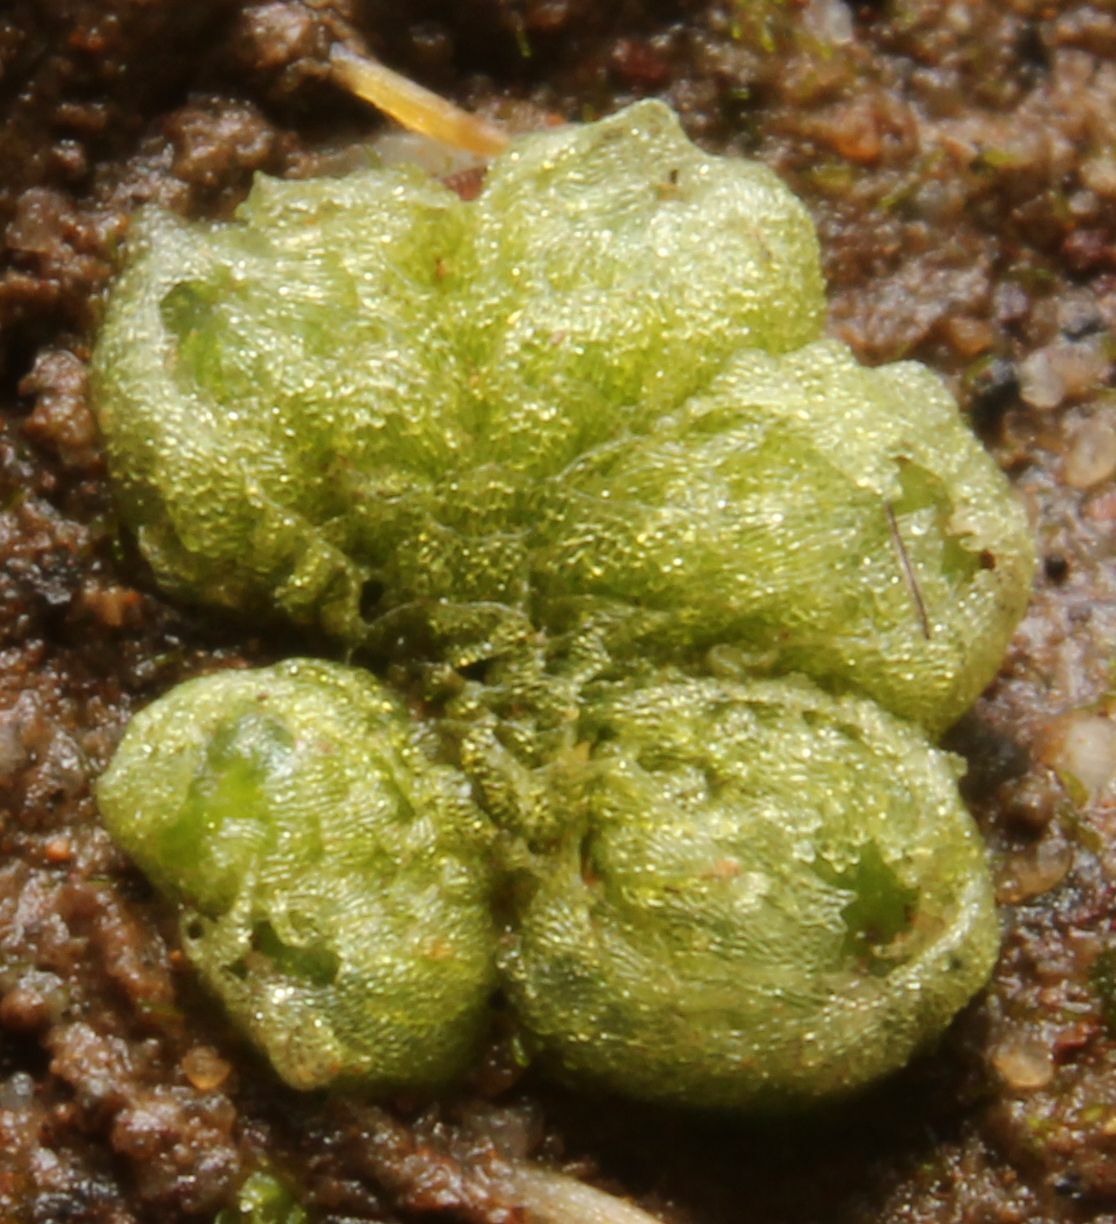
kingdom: Plantae
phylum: Marchantiophyta
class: Marchantiopsida
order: Sphaerocarpales
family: Monocarpaceae
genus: Monocarpus
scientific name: Monocarpus sphaerocarpus
